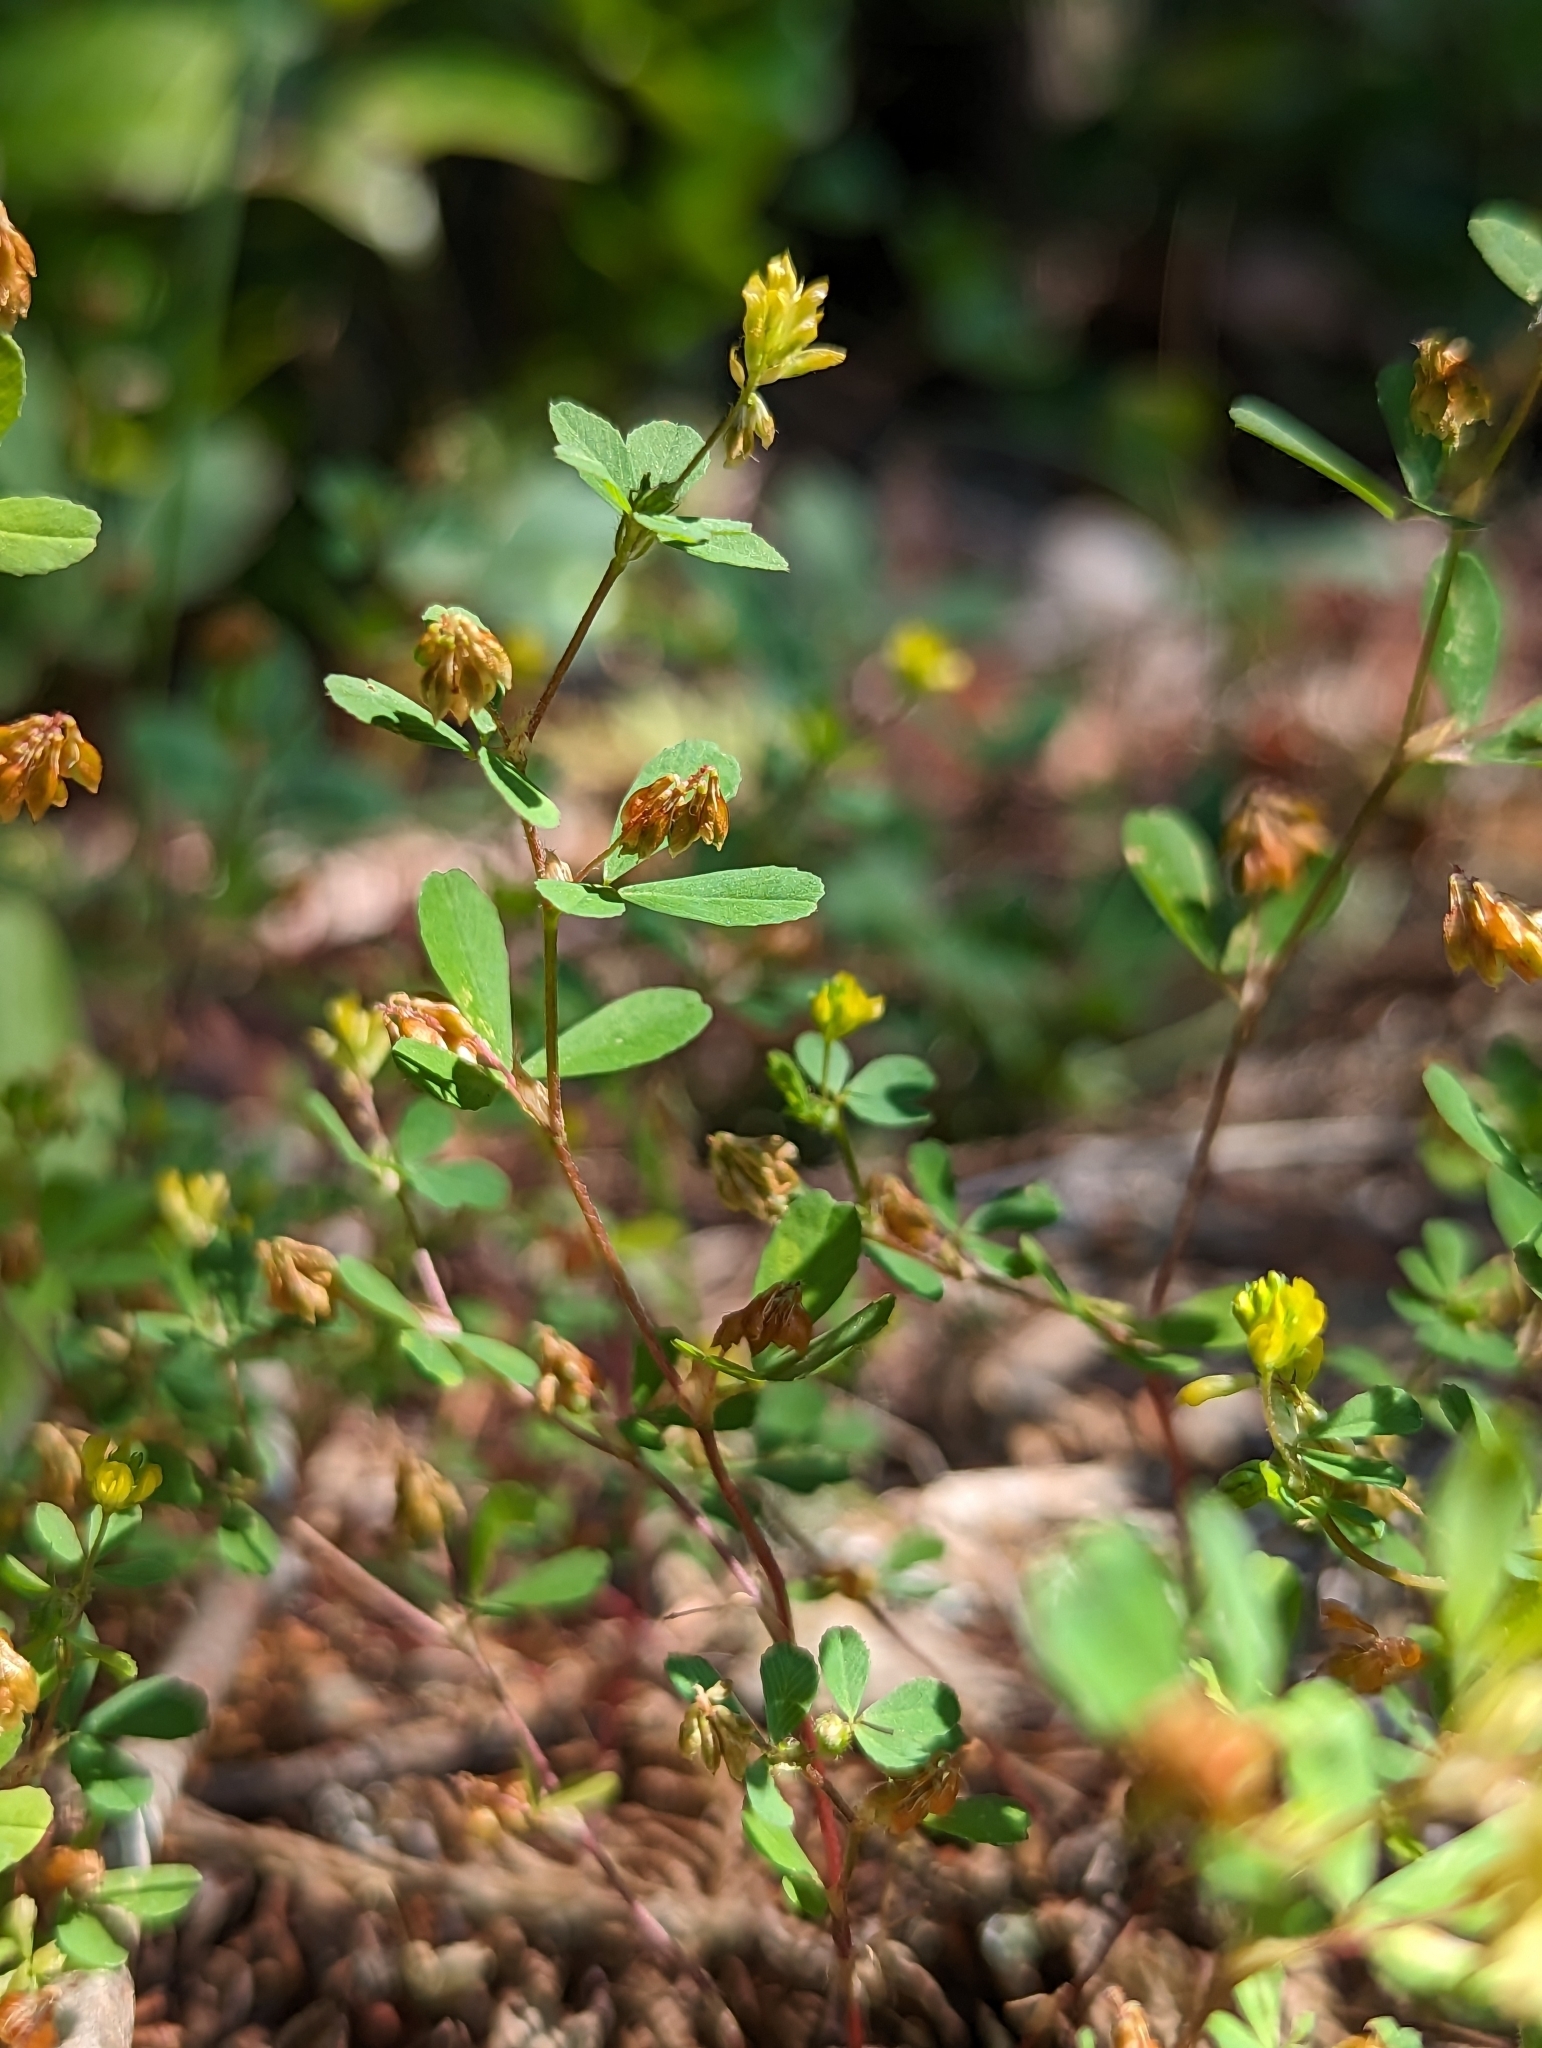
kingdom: Plantae
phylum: Tracheophyta
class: Magnoliopsida
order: Fabales
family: Fabaceae
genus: Trifolium
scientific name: Trifolium dubium
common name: Suckling clover
